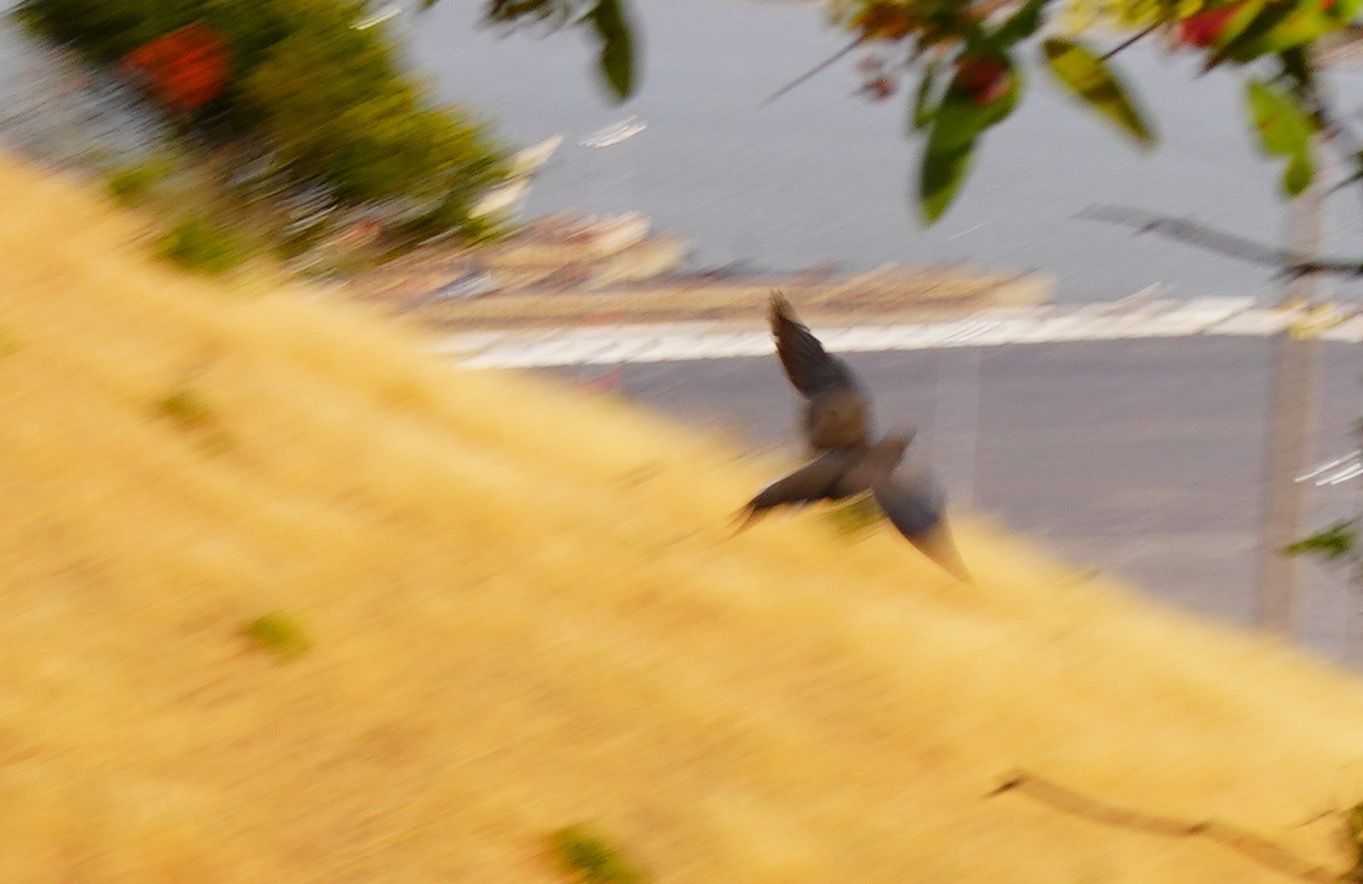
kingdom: Animalia
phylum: Chordata
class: Aves
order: Columbiformes
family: Columbidae
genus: Zenaida
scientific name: Zenaida macroura
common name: Mourning dove
